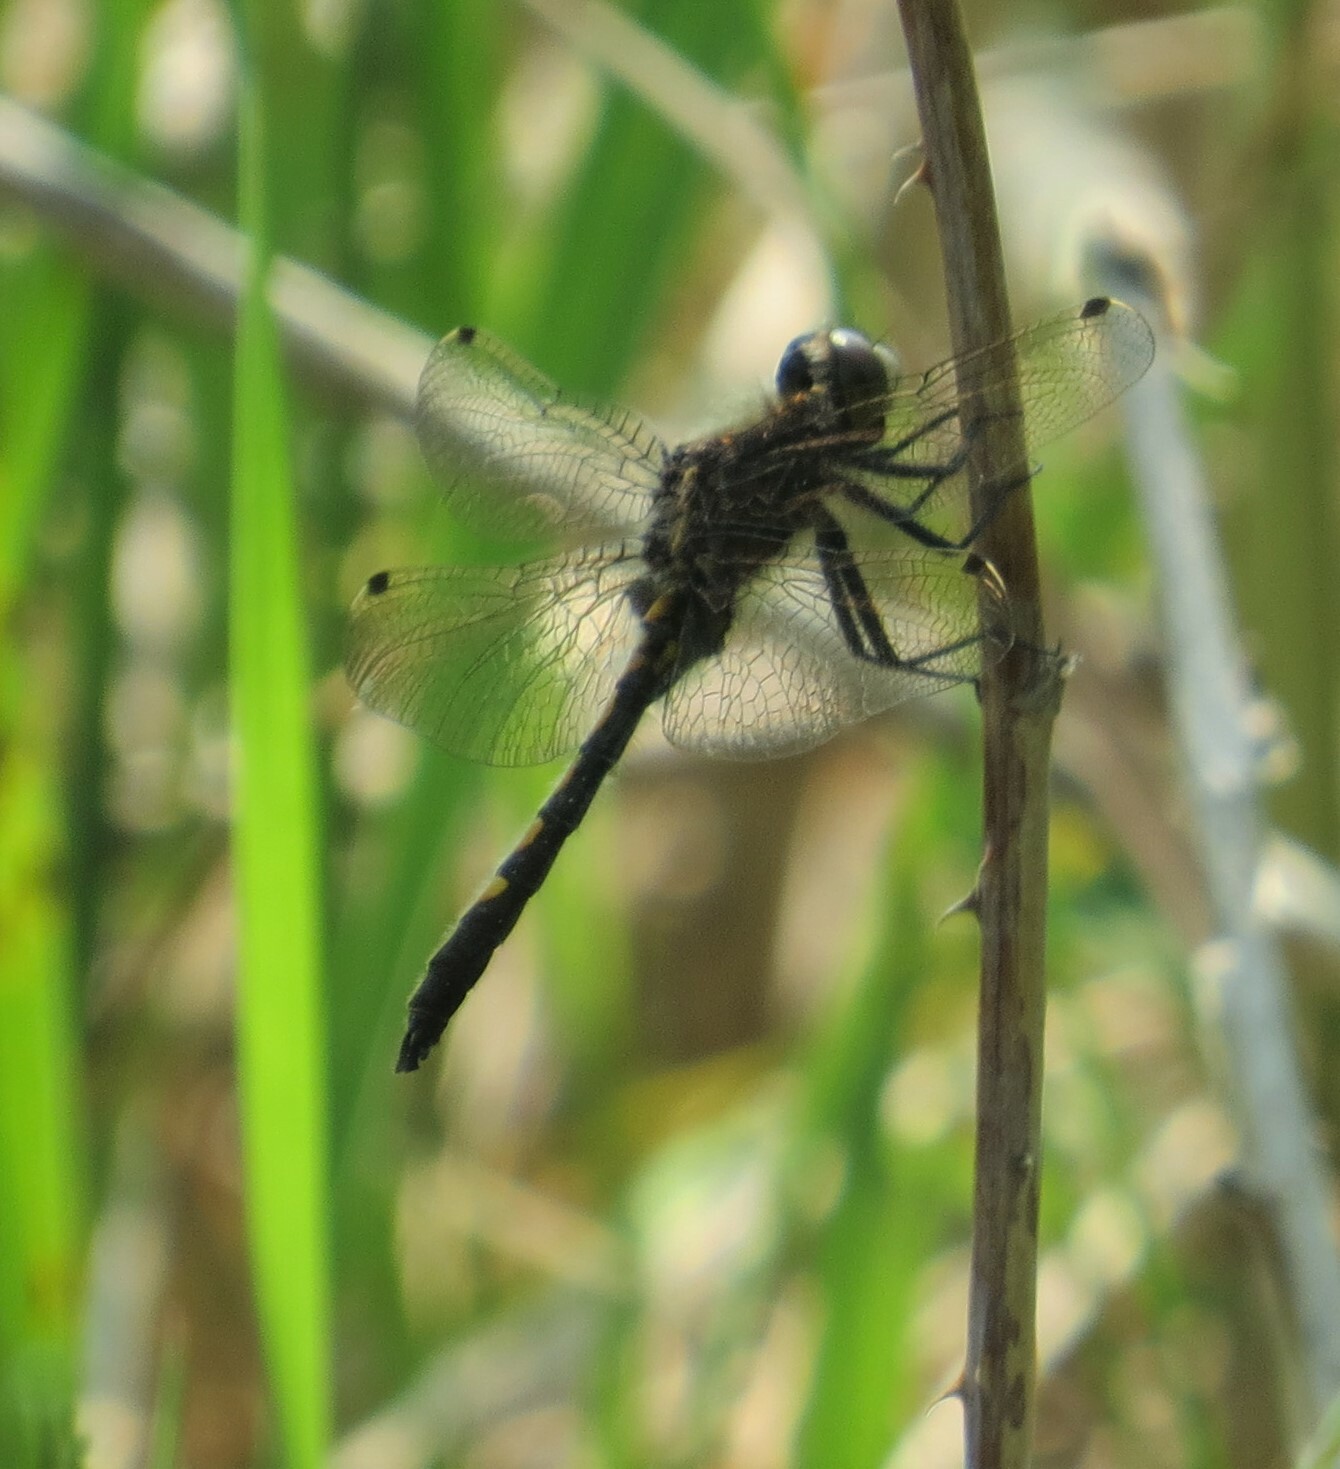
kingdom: Animalia
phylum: Arthropoda
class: Insecta
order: Odonata
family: Libellulidae
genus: Leucorrhinia
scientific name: Leucorrhinia intacta
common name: Dot-tailed whiteface
